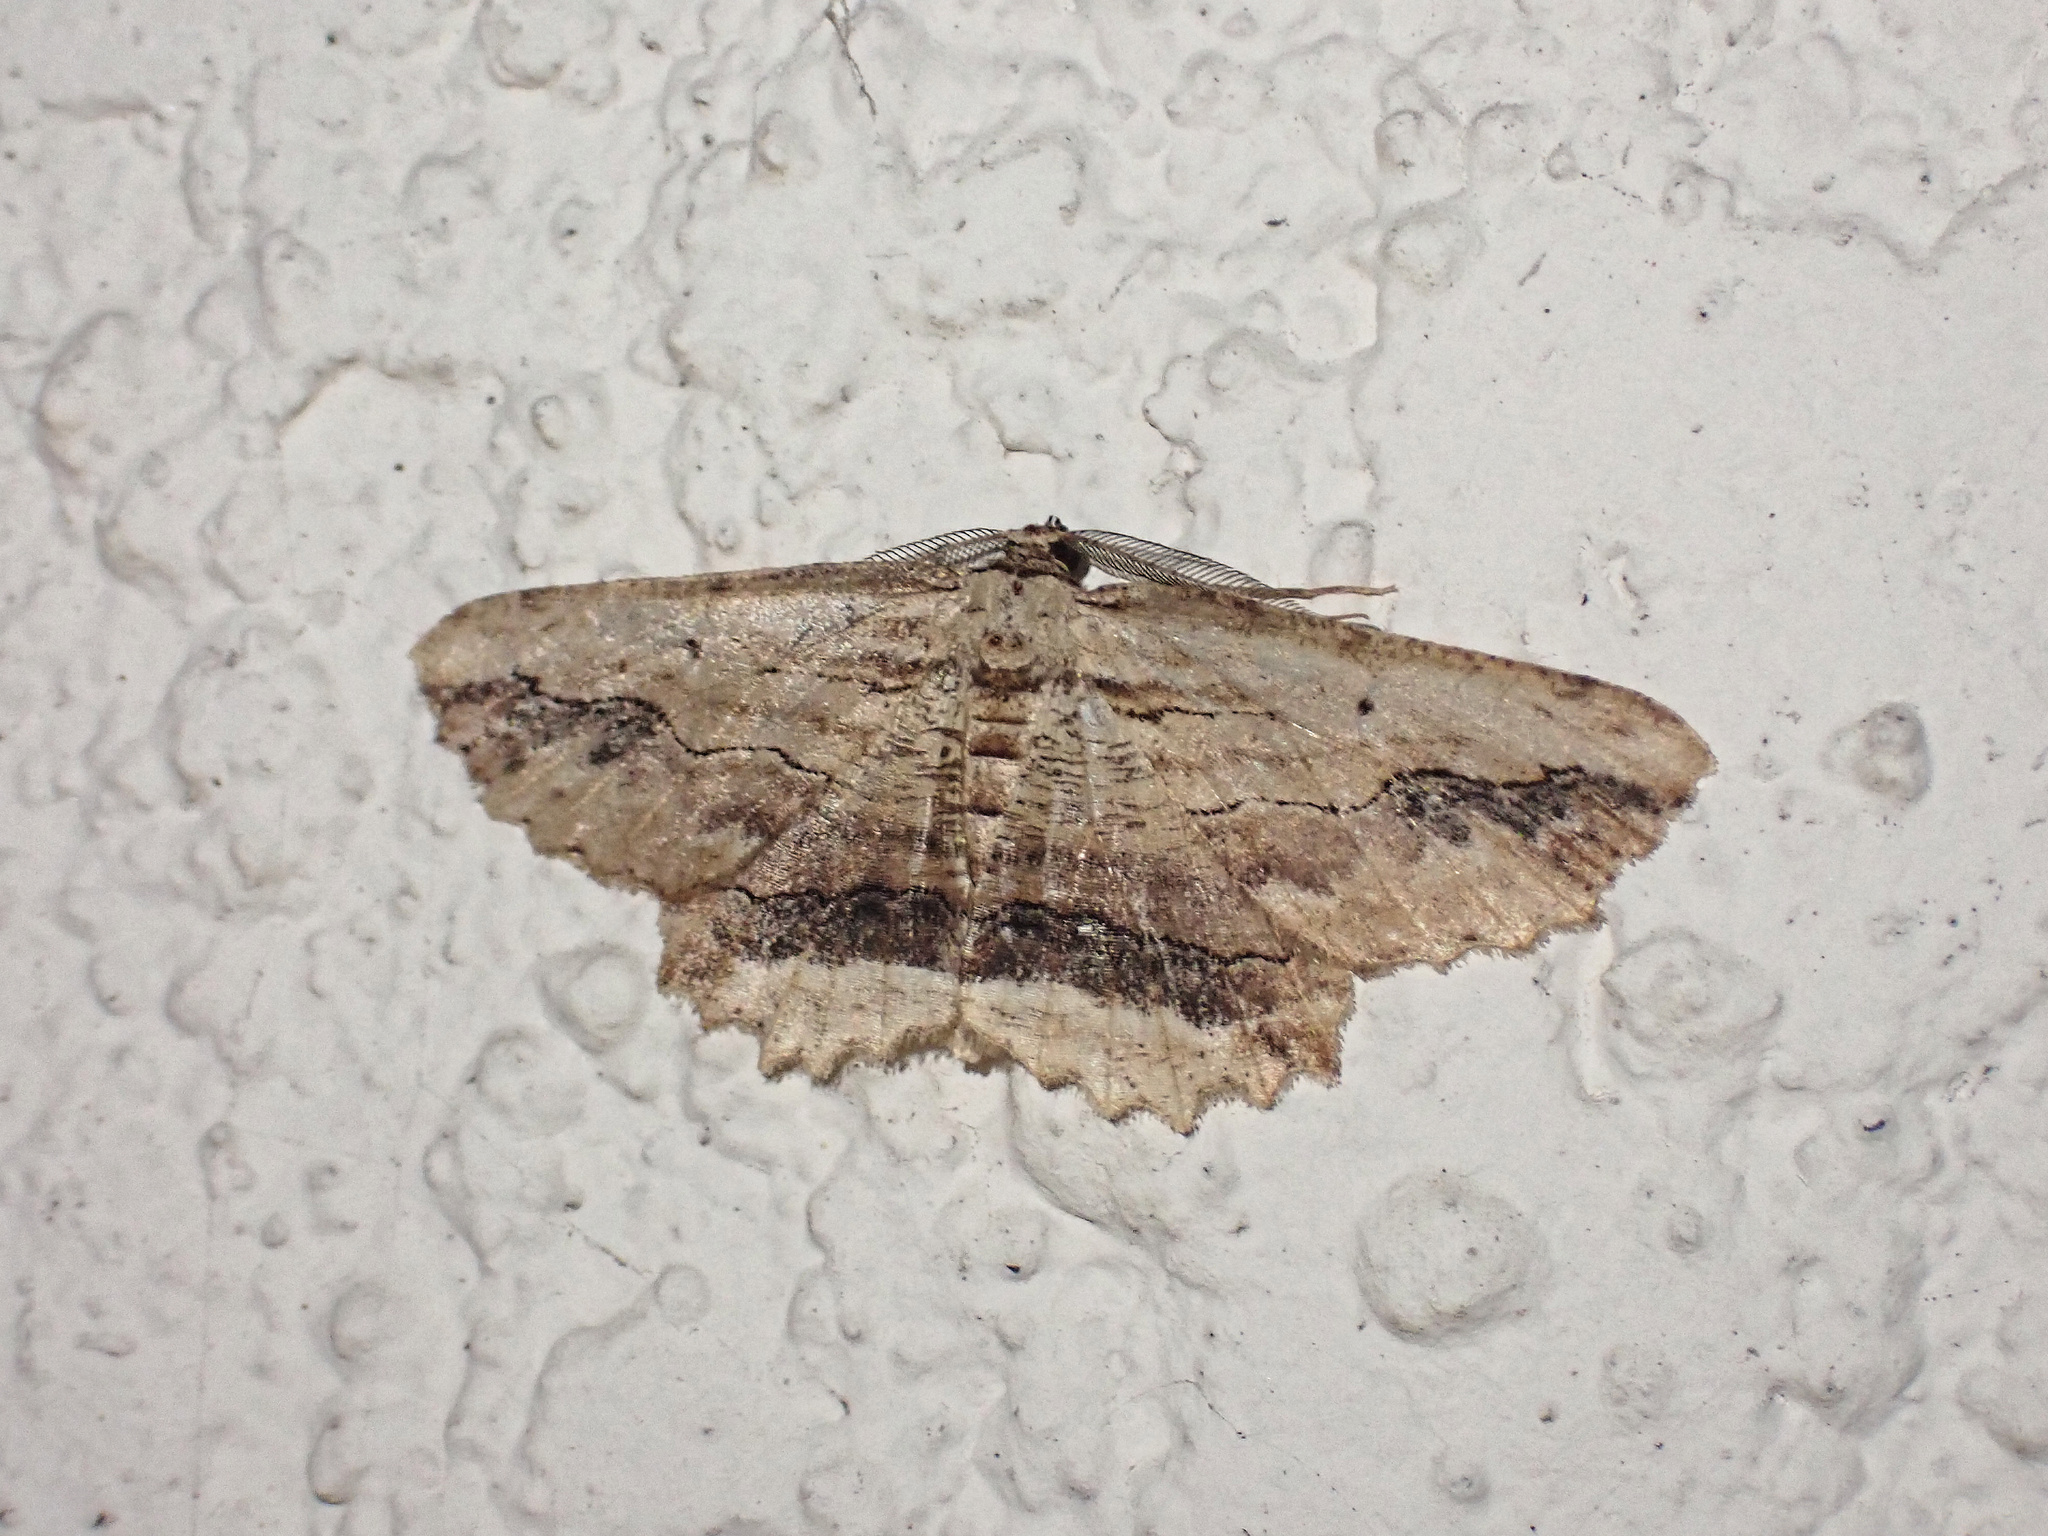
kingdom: Animalia
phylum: Arthropoda
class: Insecta
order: Lepidoptera
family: Geometridae
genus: Menophra
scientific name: Menophra abruptaria
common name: Waved umber
